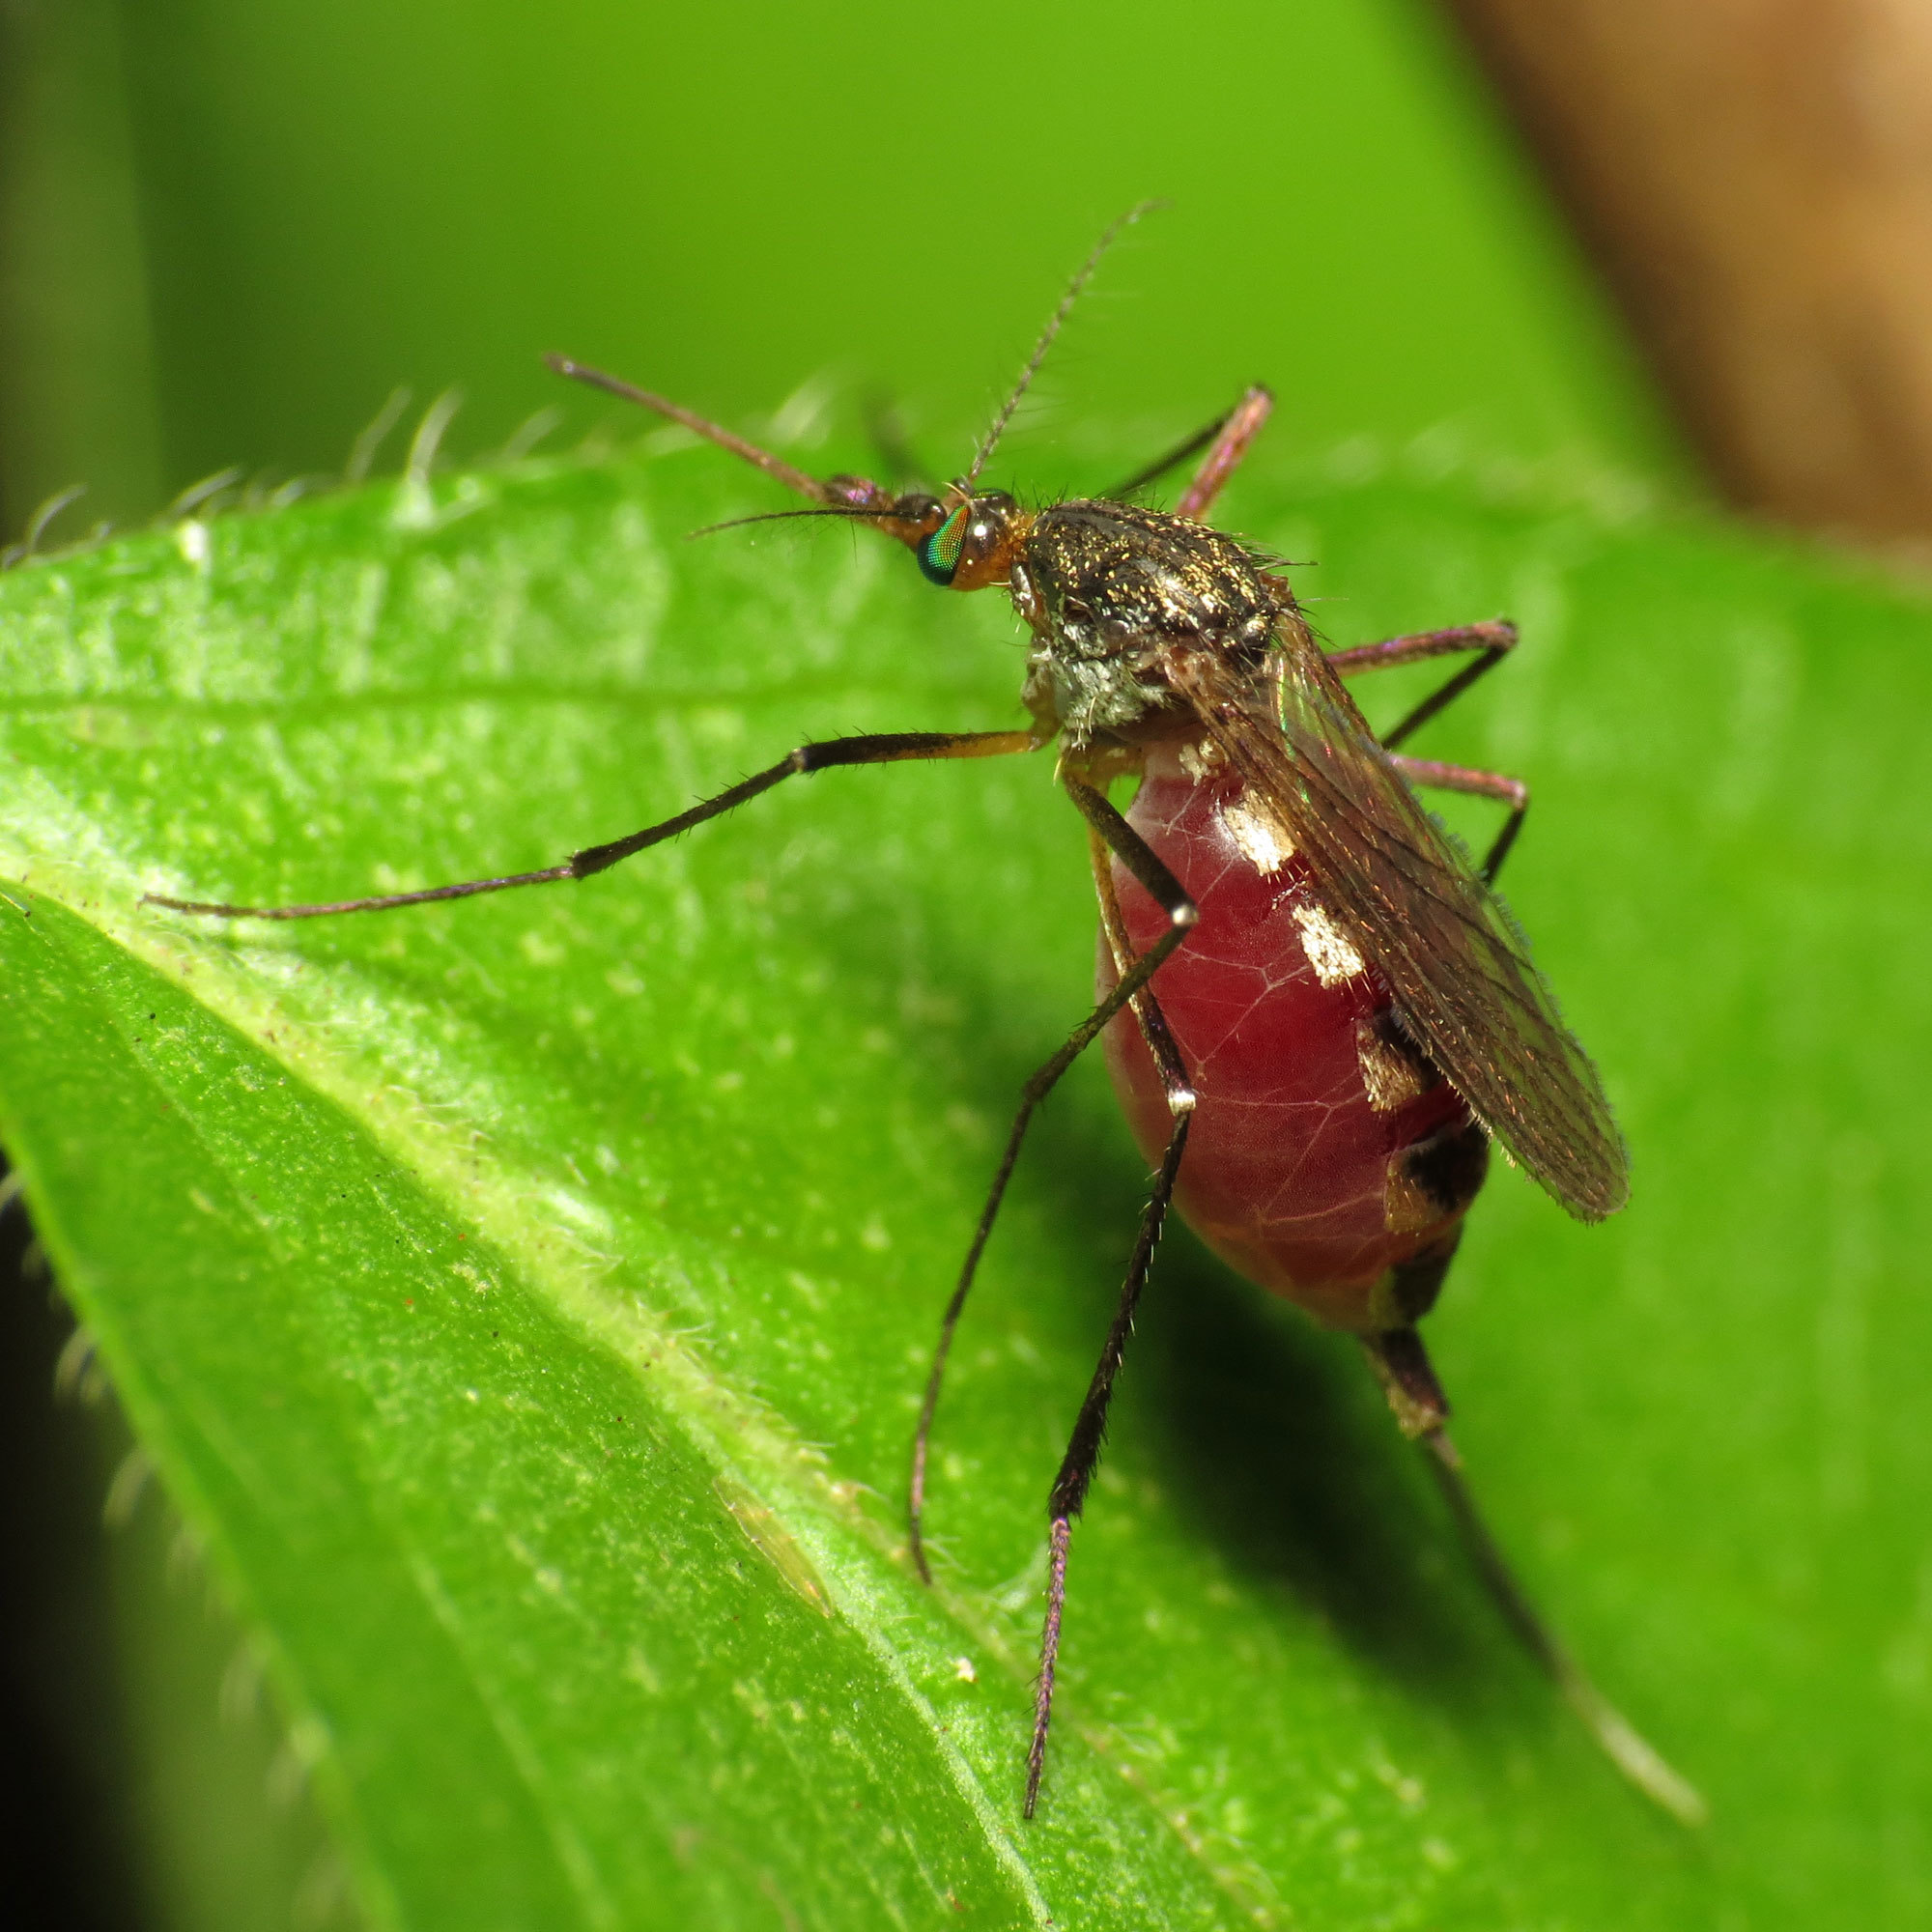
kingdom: Animalia
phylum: Arthropoda
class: Insecta
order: Diptera
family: Culicidae
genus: Psorophora
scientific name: Psorophora ferox
